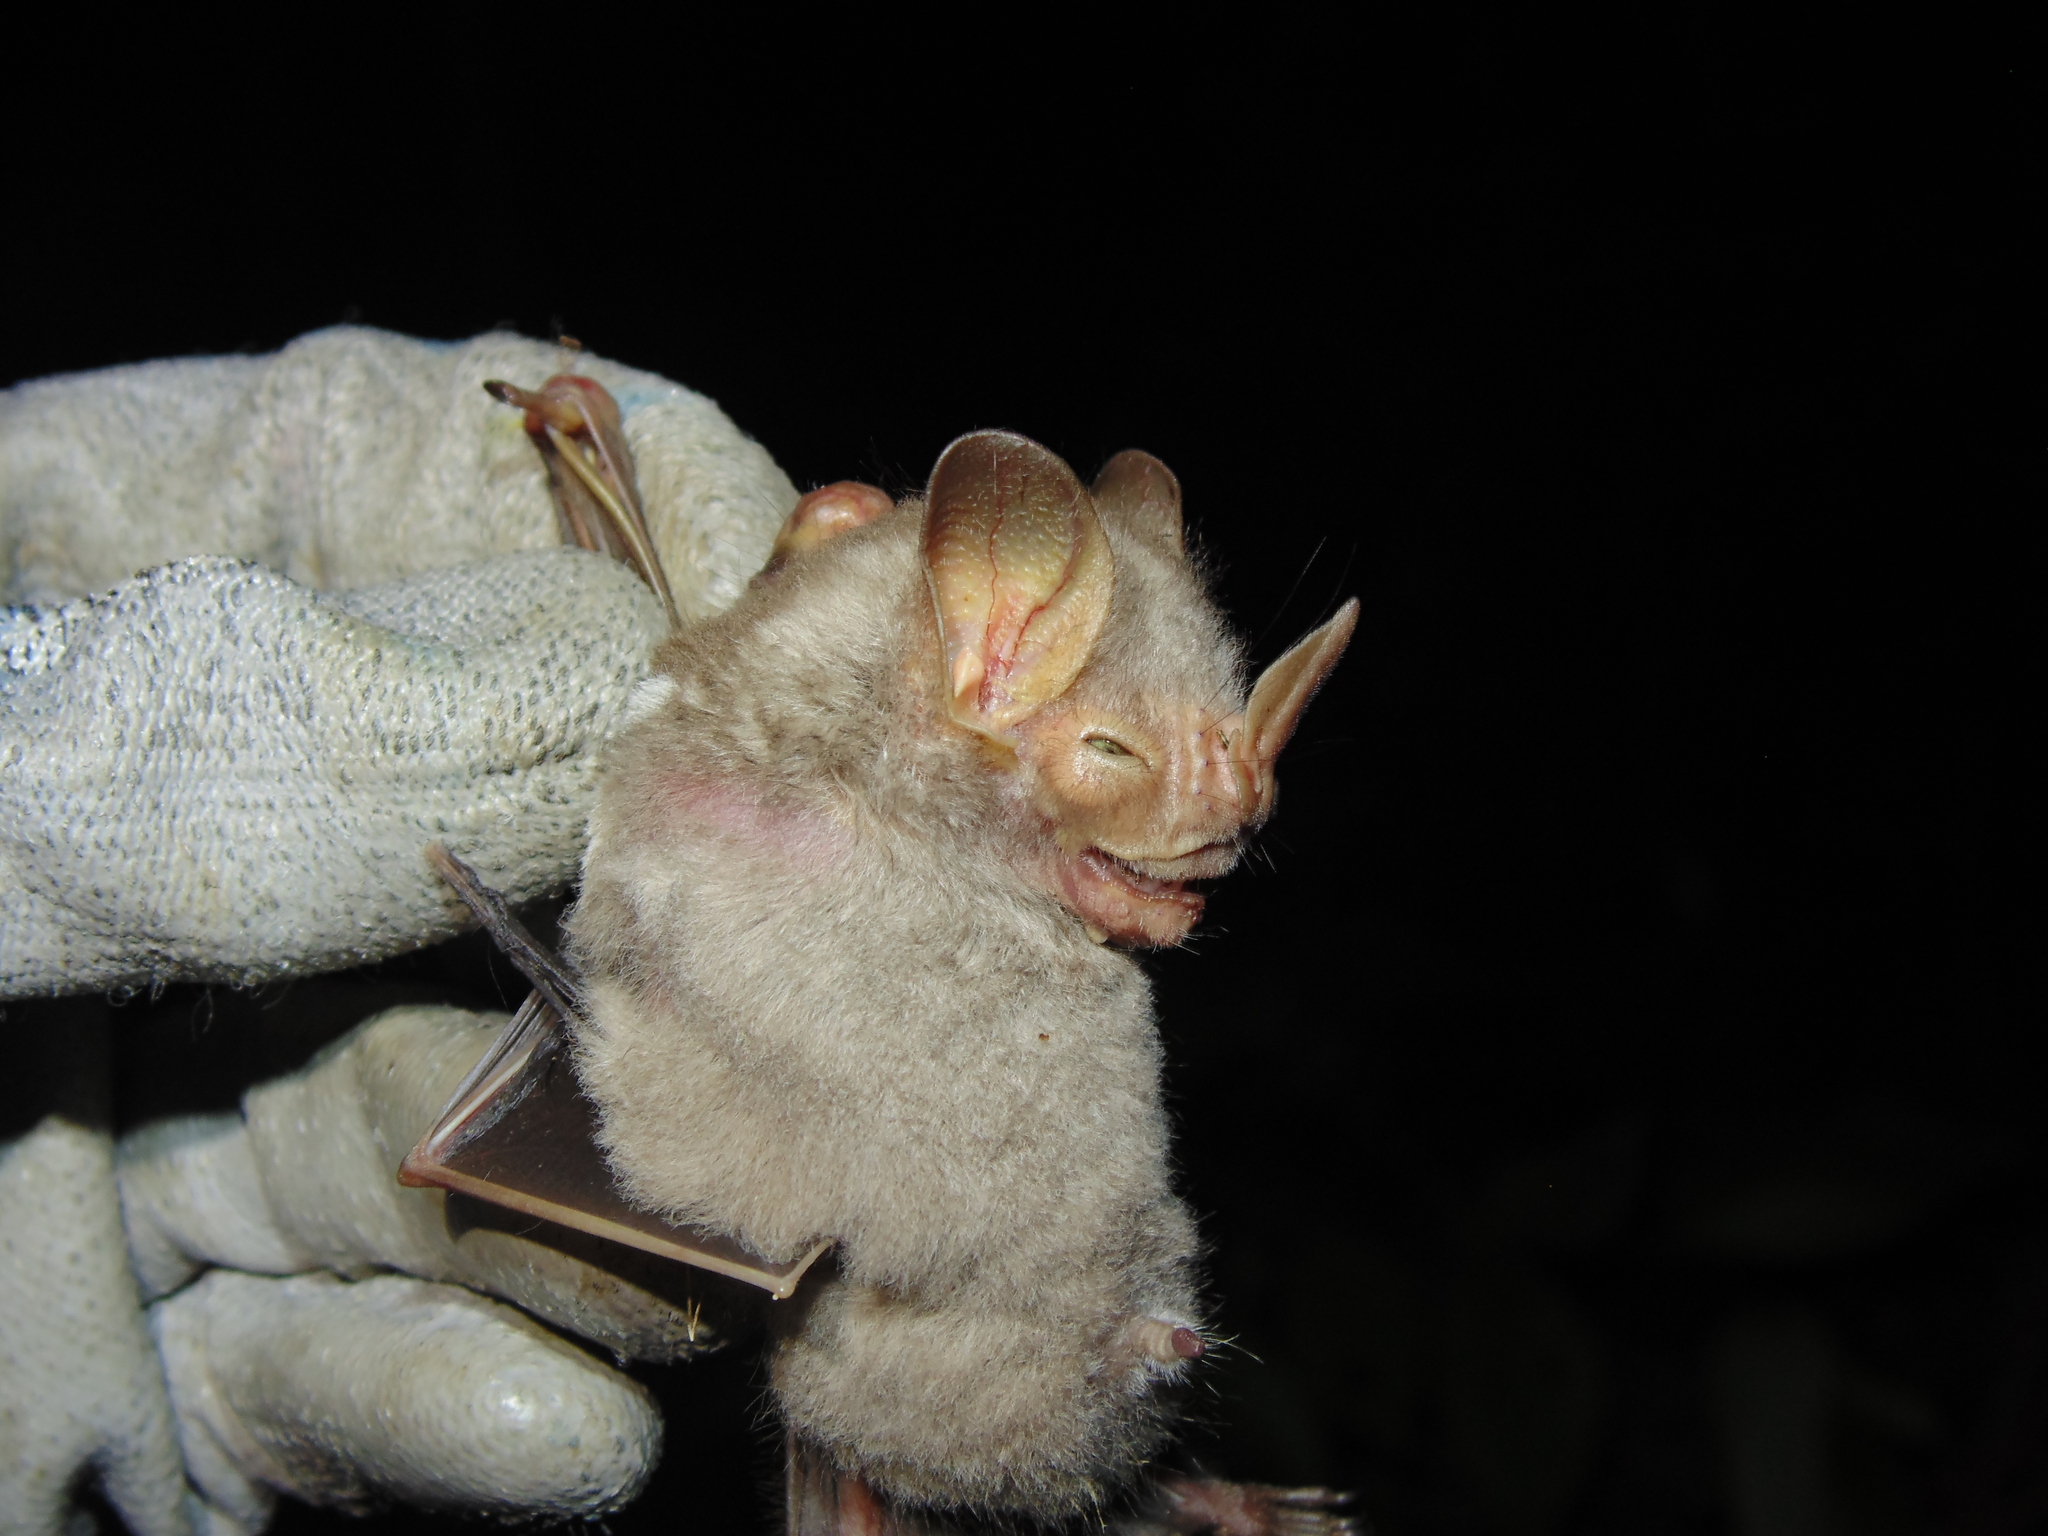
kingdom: Animalia
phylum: Chordata
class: Mammalia
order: Chiroptera
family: Phyllostomidae
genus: Pygoderma
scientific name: Pygoderma bilabiatum
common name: Ipanema broad-nosed bat
